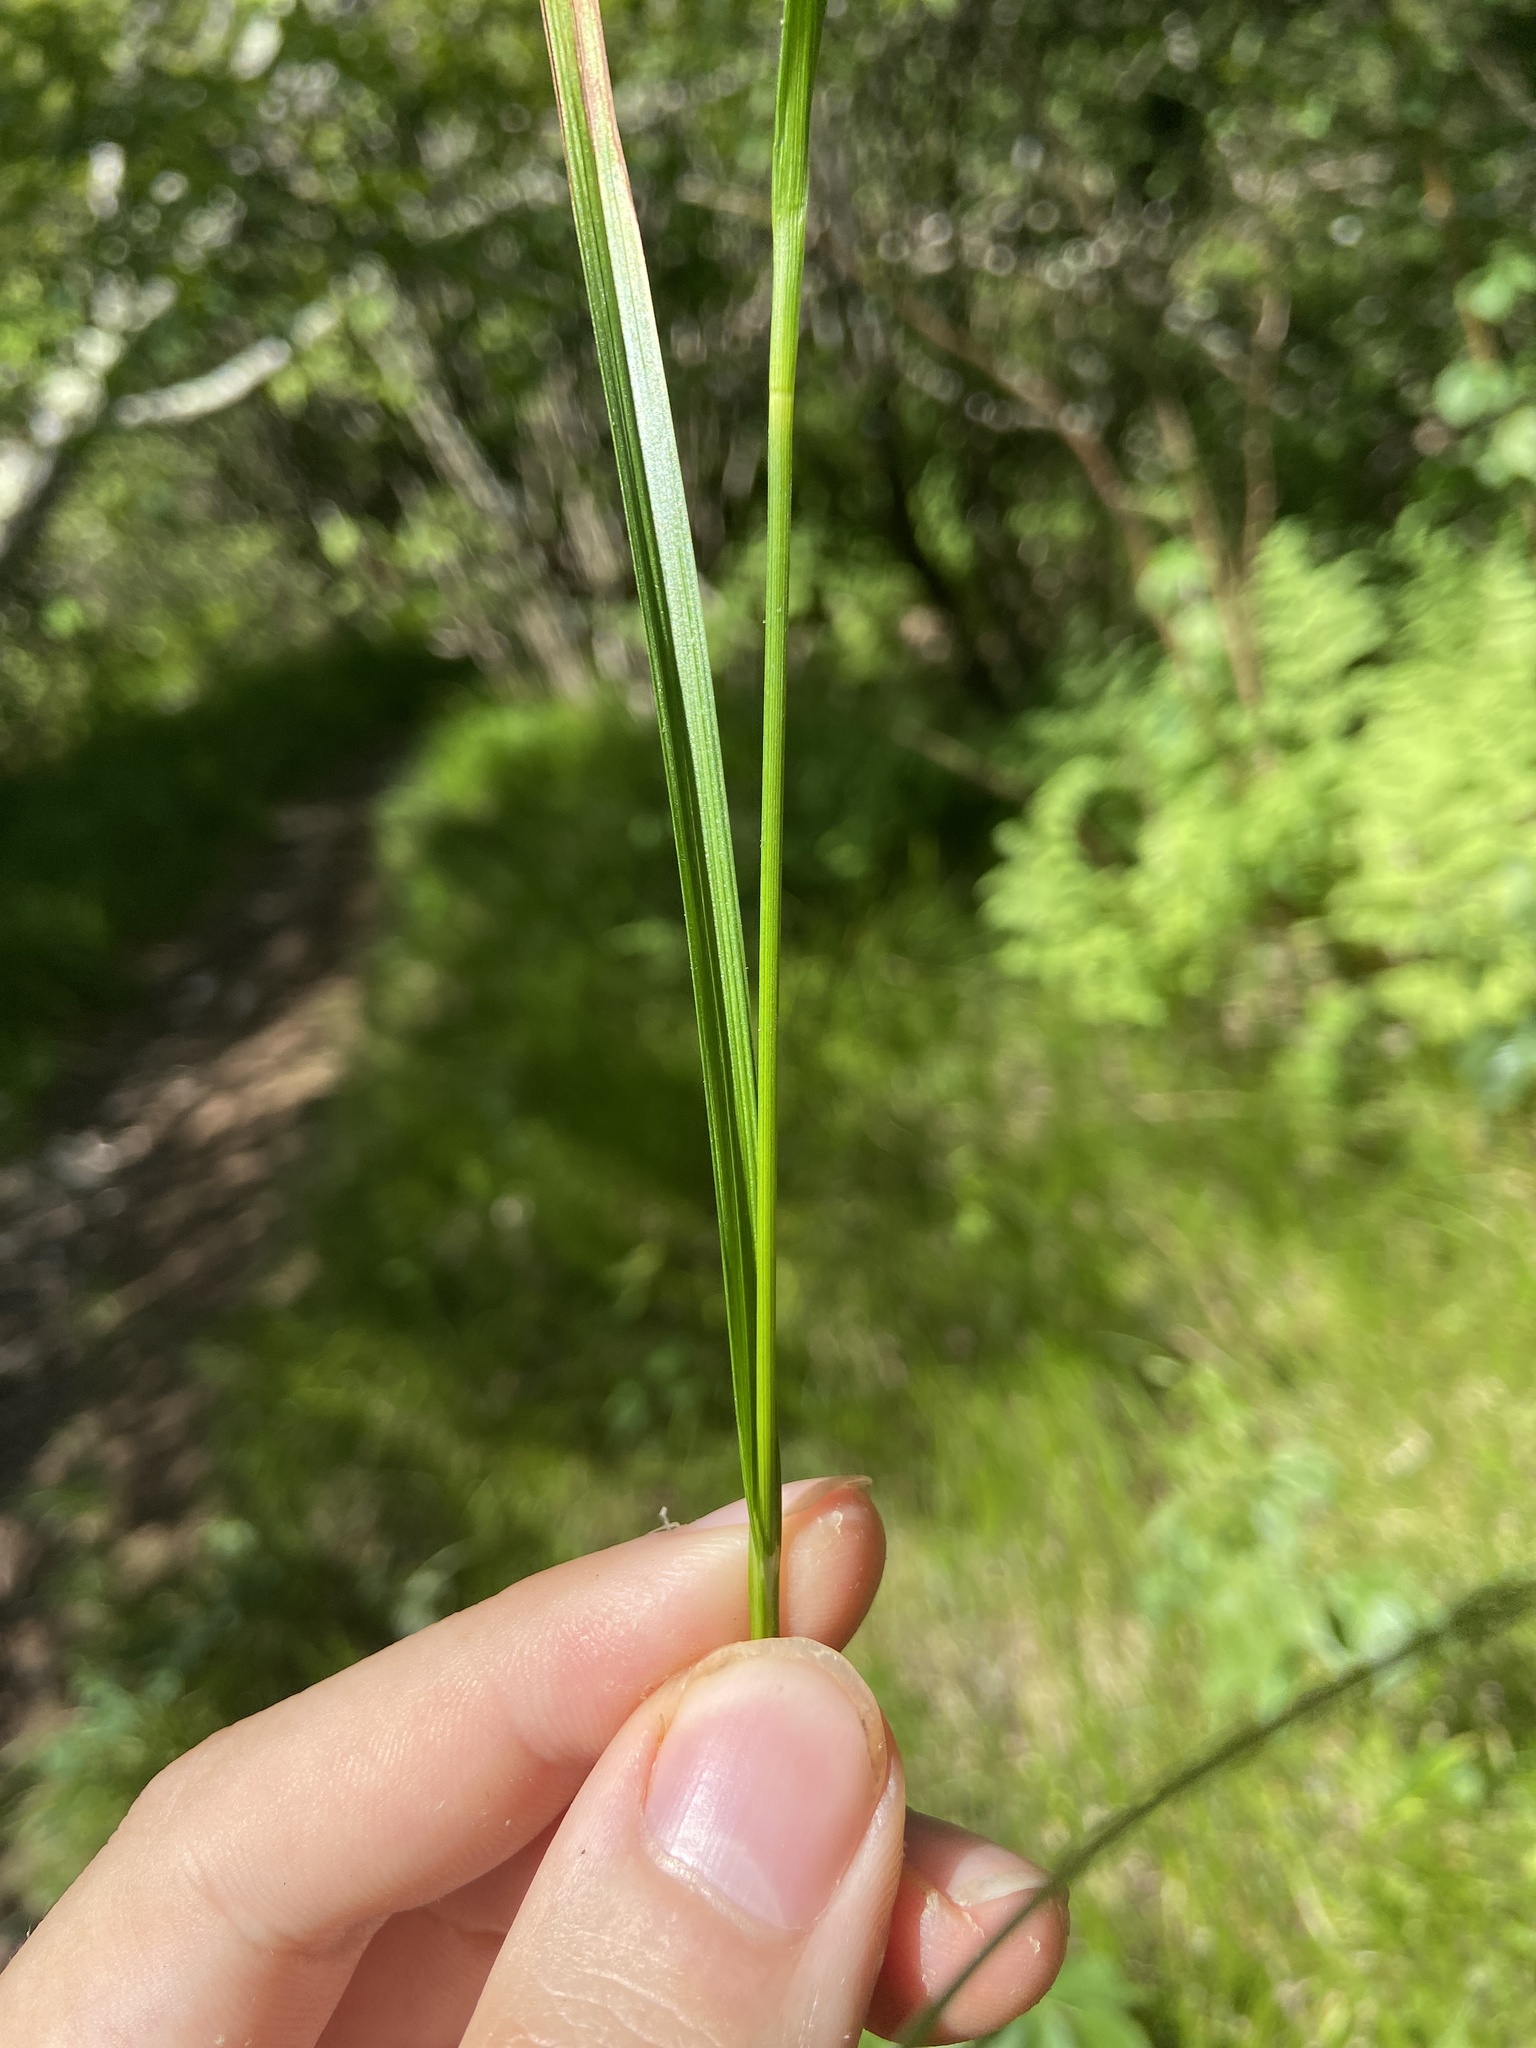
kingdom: Plantae
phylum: Tracheophyta
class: Liliopsida
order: Poales
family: Cyperaceae
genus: Carex
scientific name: Carex intumescens
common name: Greater bladder sedge
